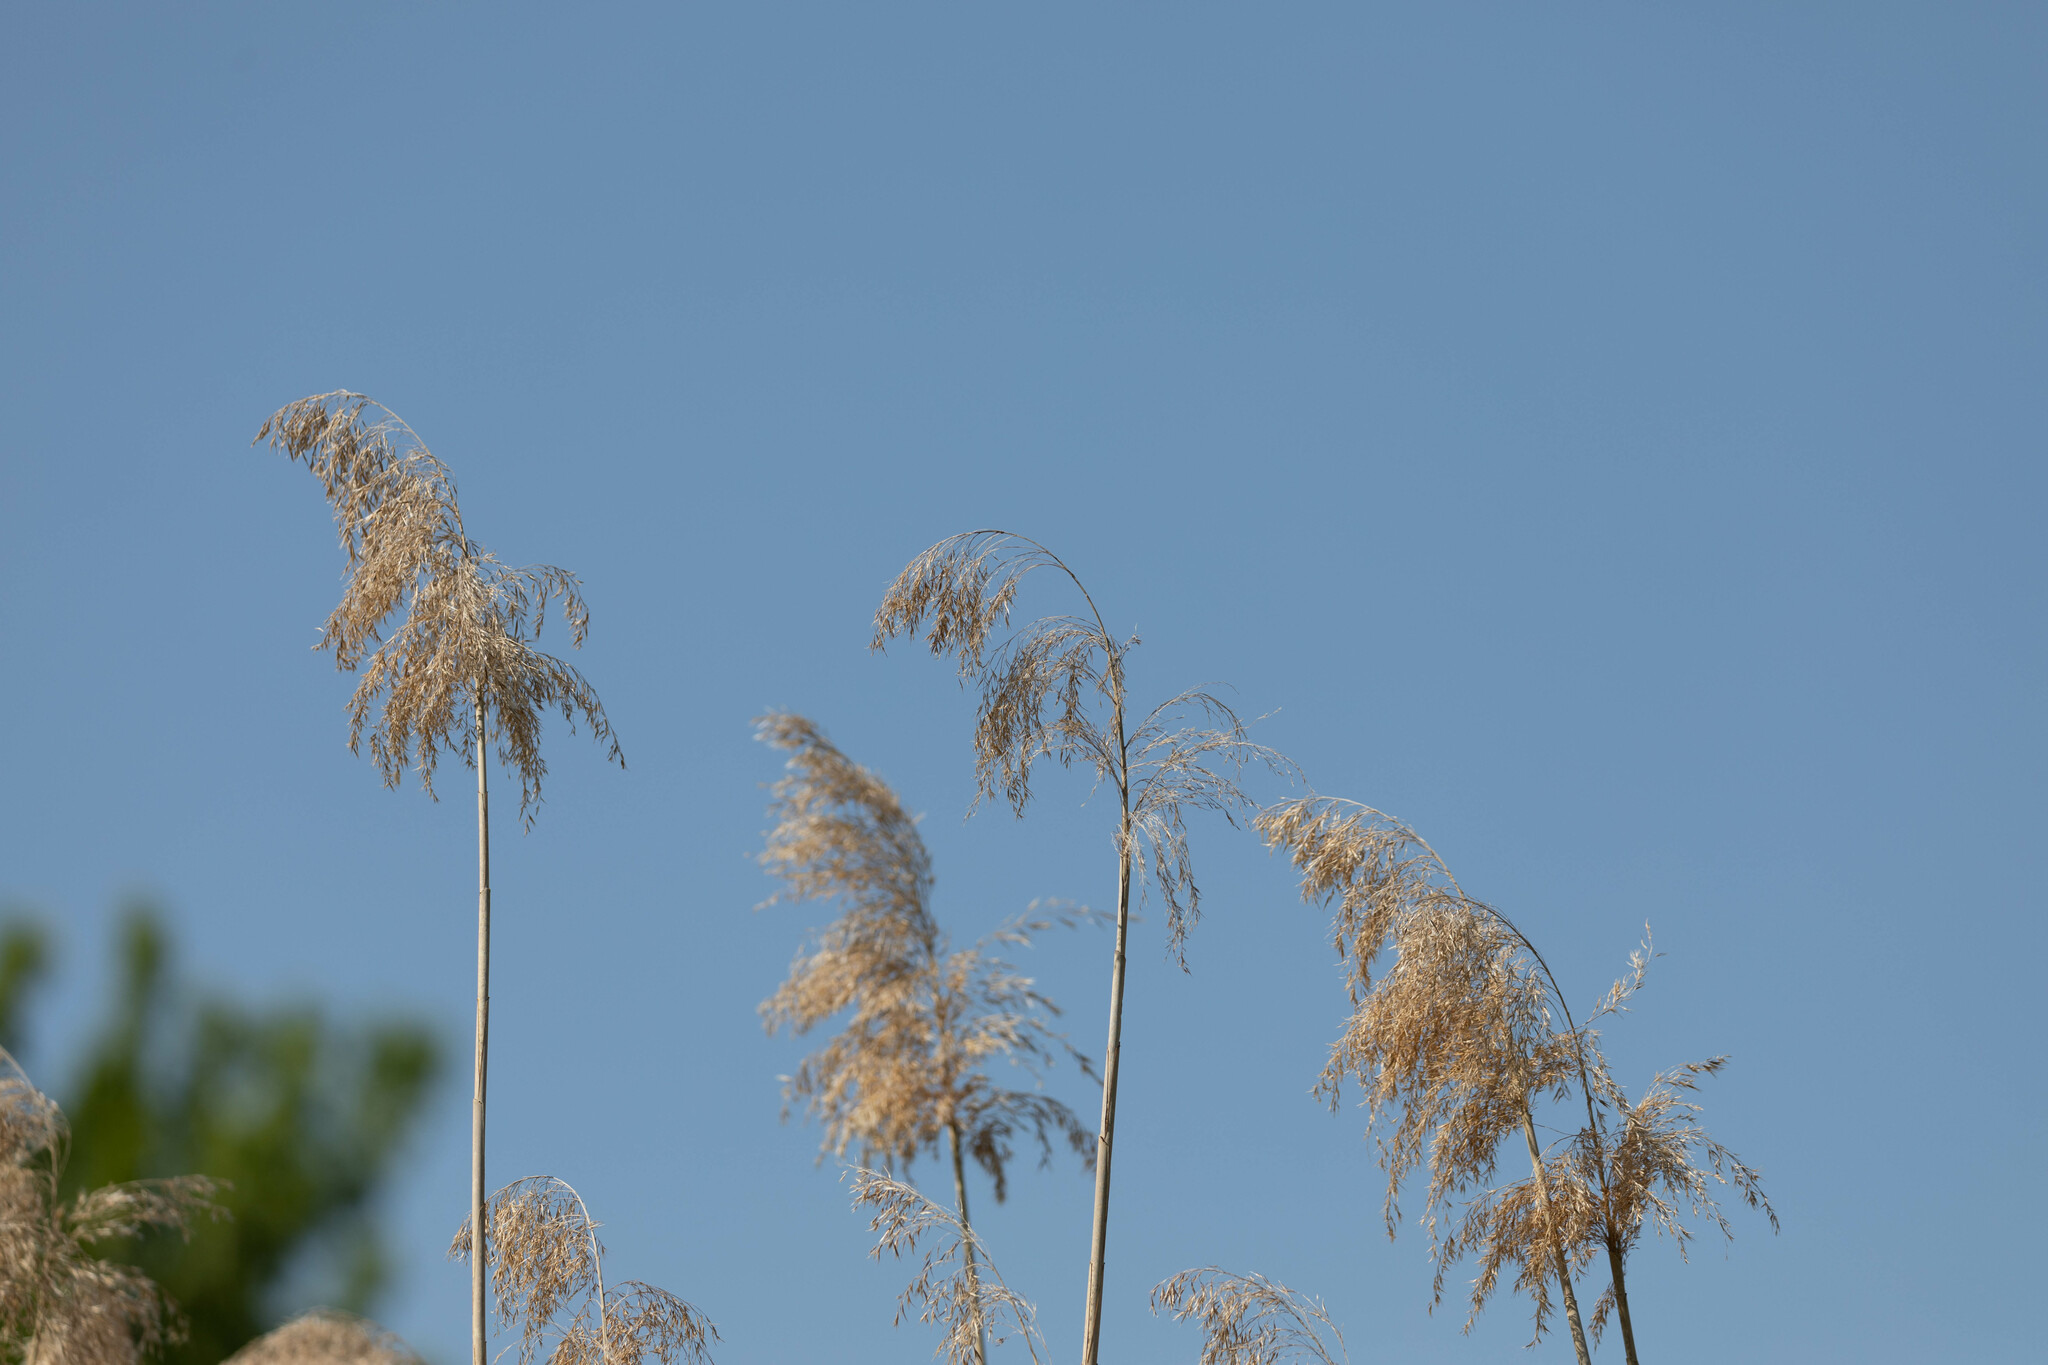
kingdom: Plantae
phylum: Tracheophyta
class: Liliopsida
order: Poales
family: Poaceae
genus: Phragmites
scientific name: Phragmites australis
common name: Common reed
